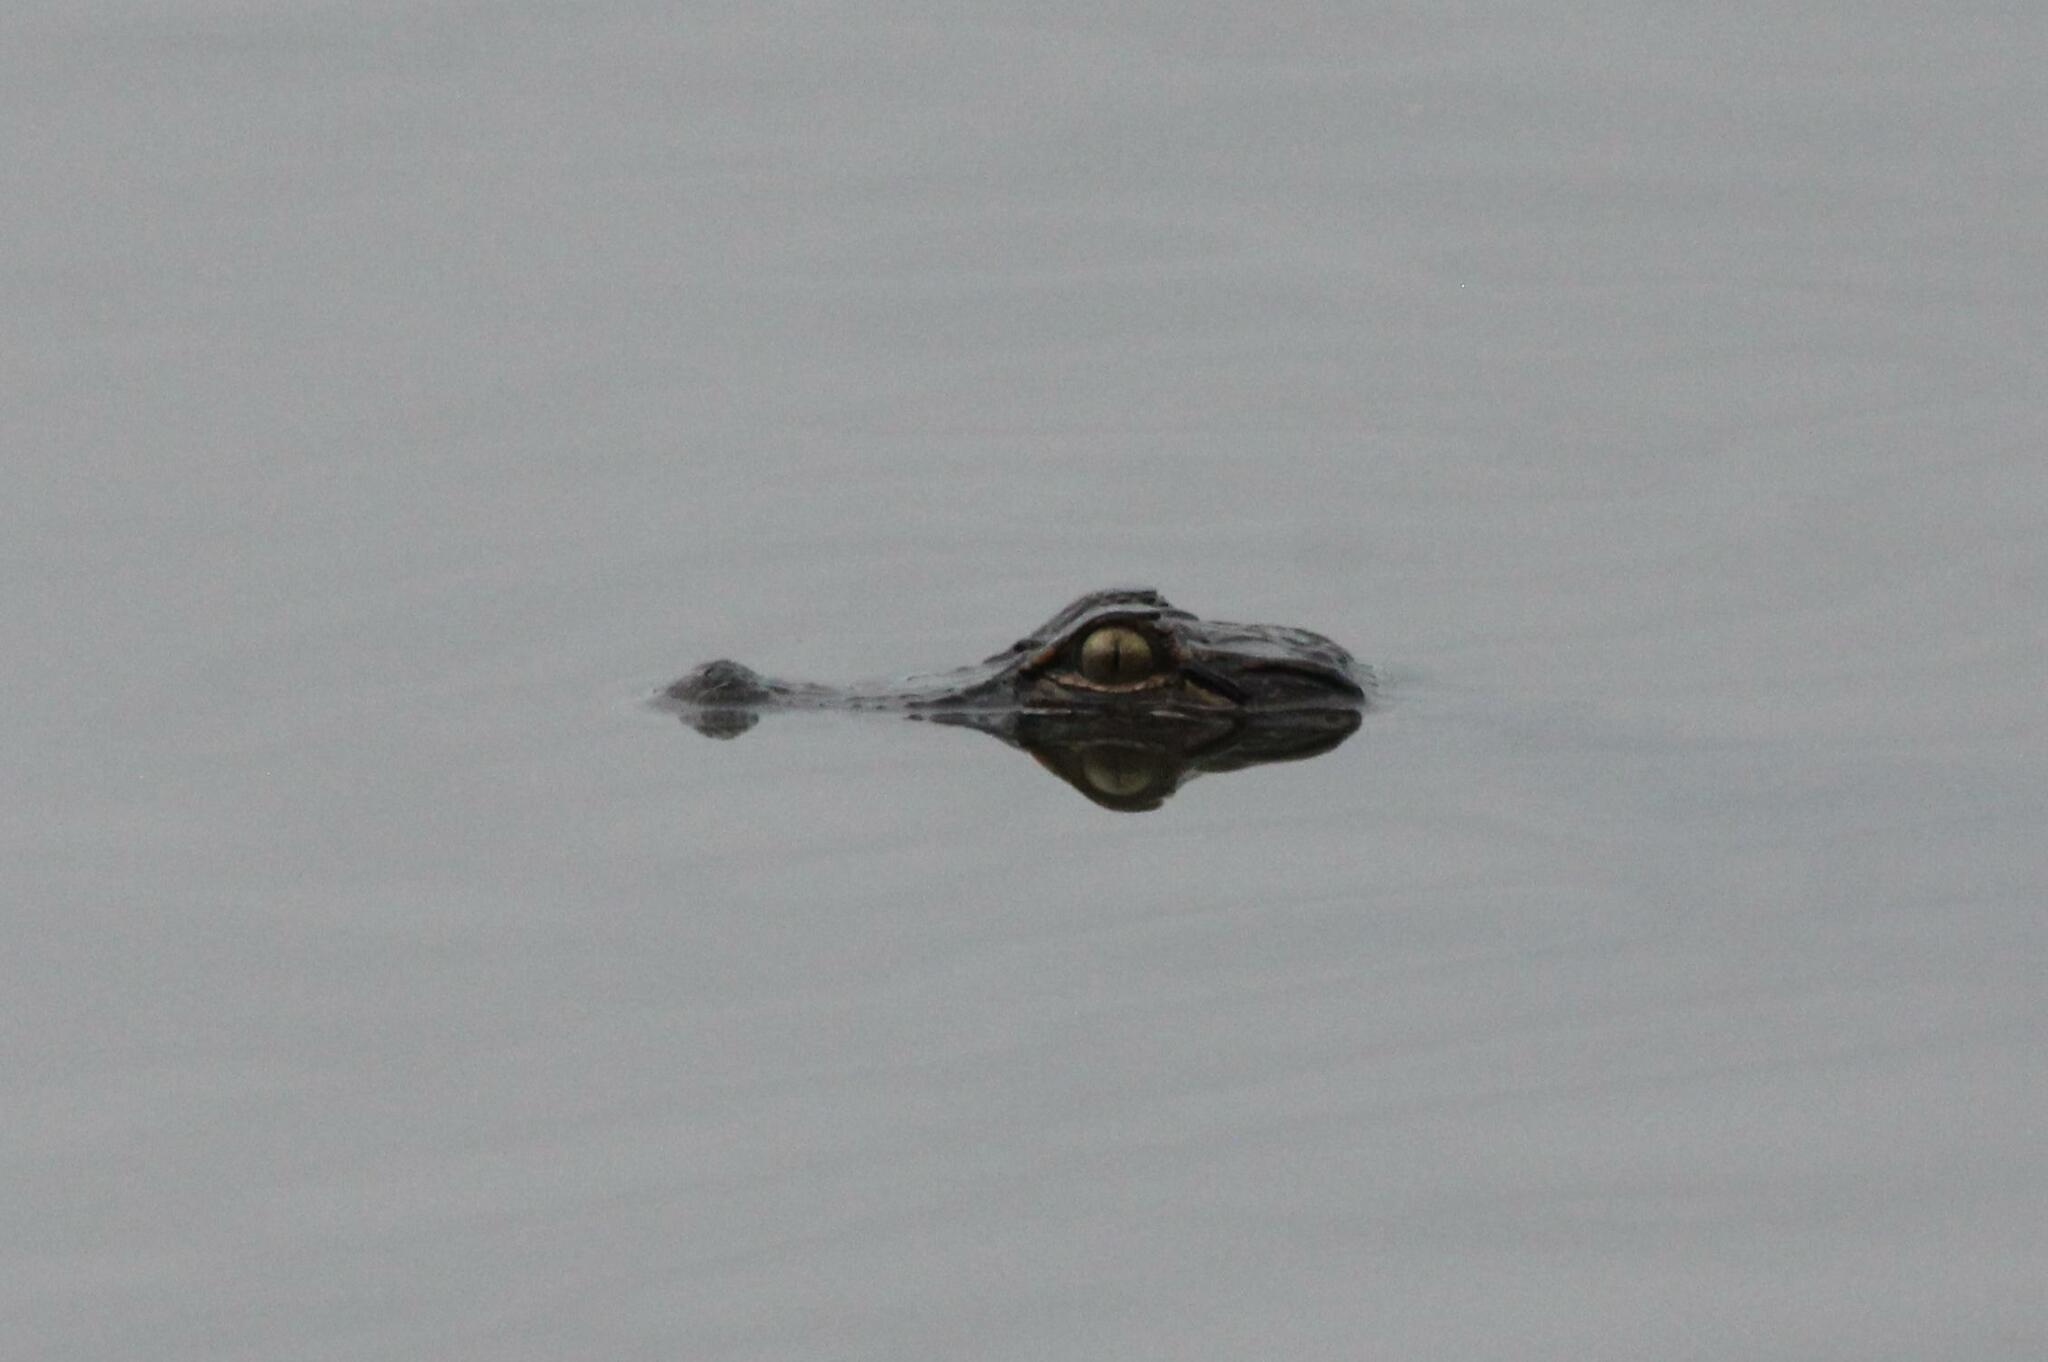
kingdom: Animalia
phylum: Chordata
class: Crocodylia
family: Alligatoridae
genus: Alligator
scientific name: Alligator mississippiensis
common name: American alligator
